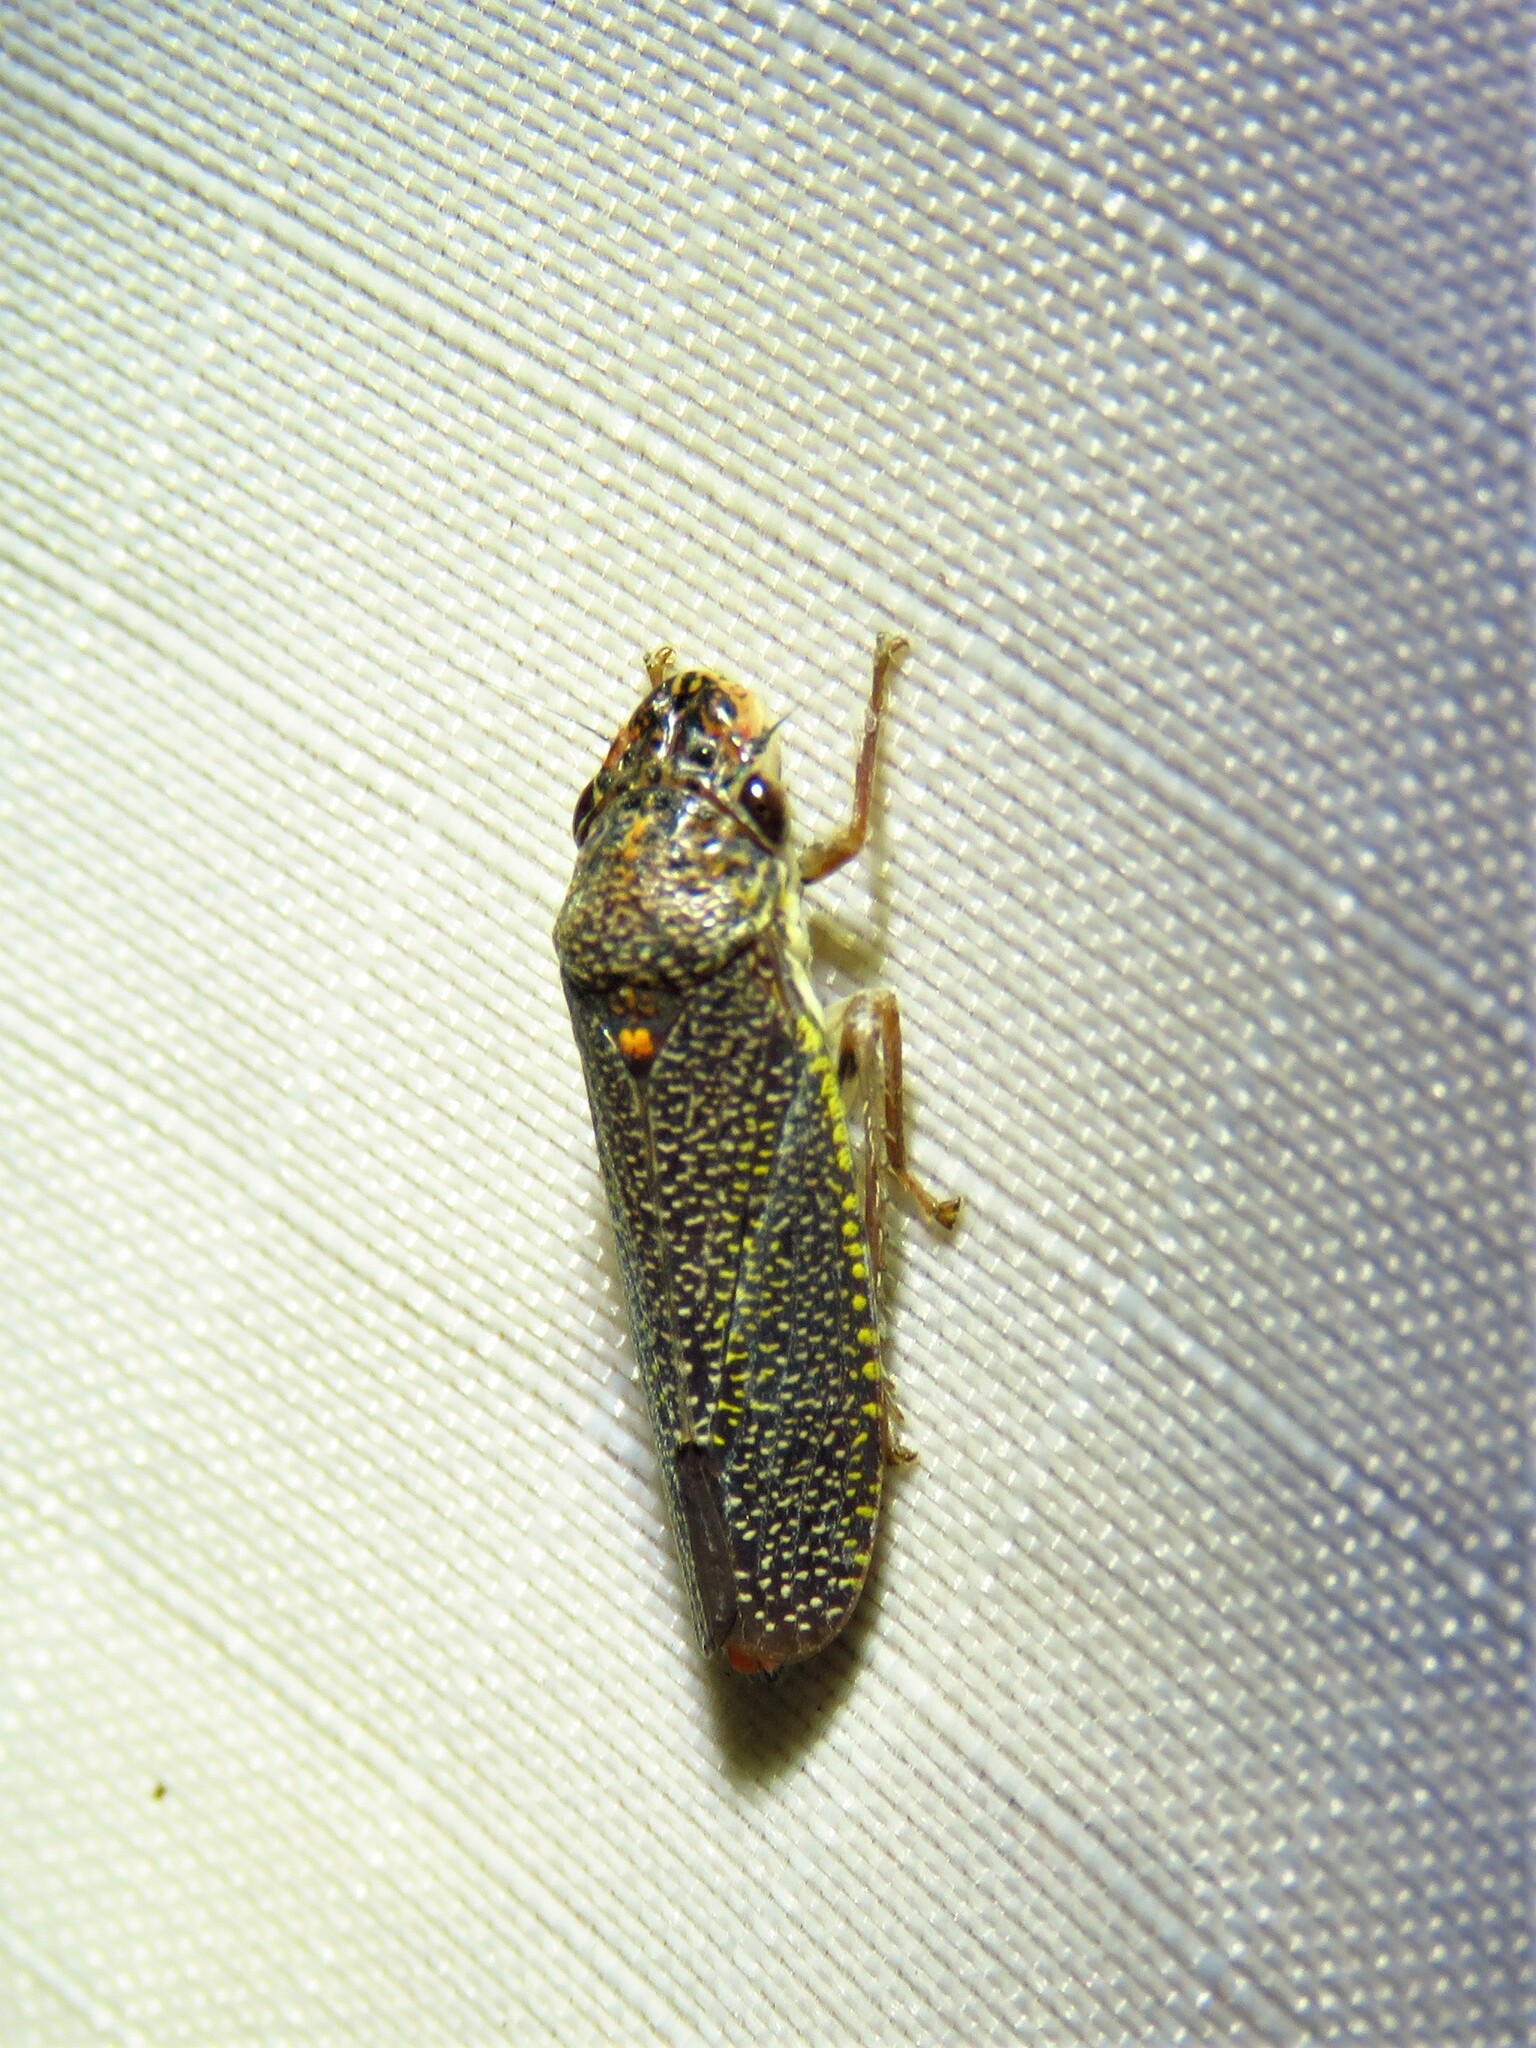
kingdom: Animalia
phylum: Arthropoda
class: Insecta
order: Hemiptera
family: Cicadellidae
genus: Paraulacizes
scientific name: Paraulacizes irrorata
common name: Speckled sharpshooter
